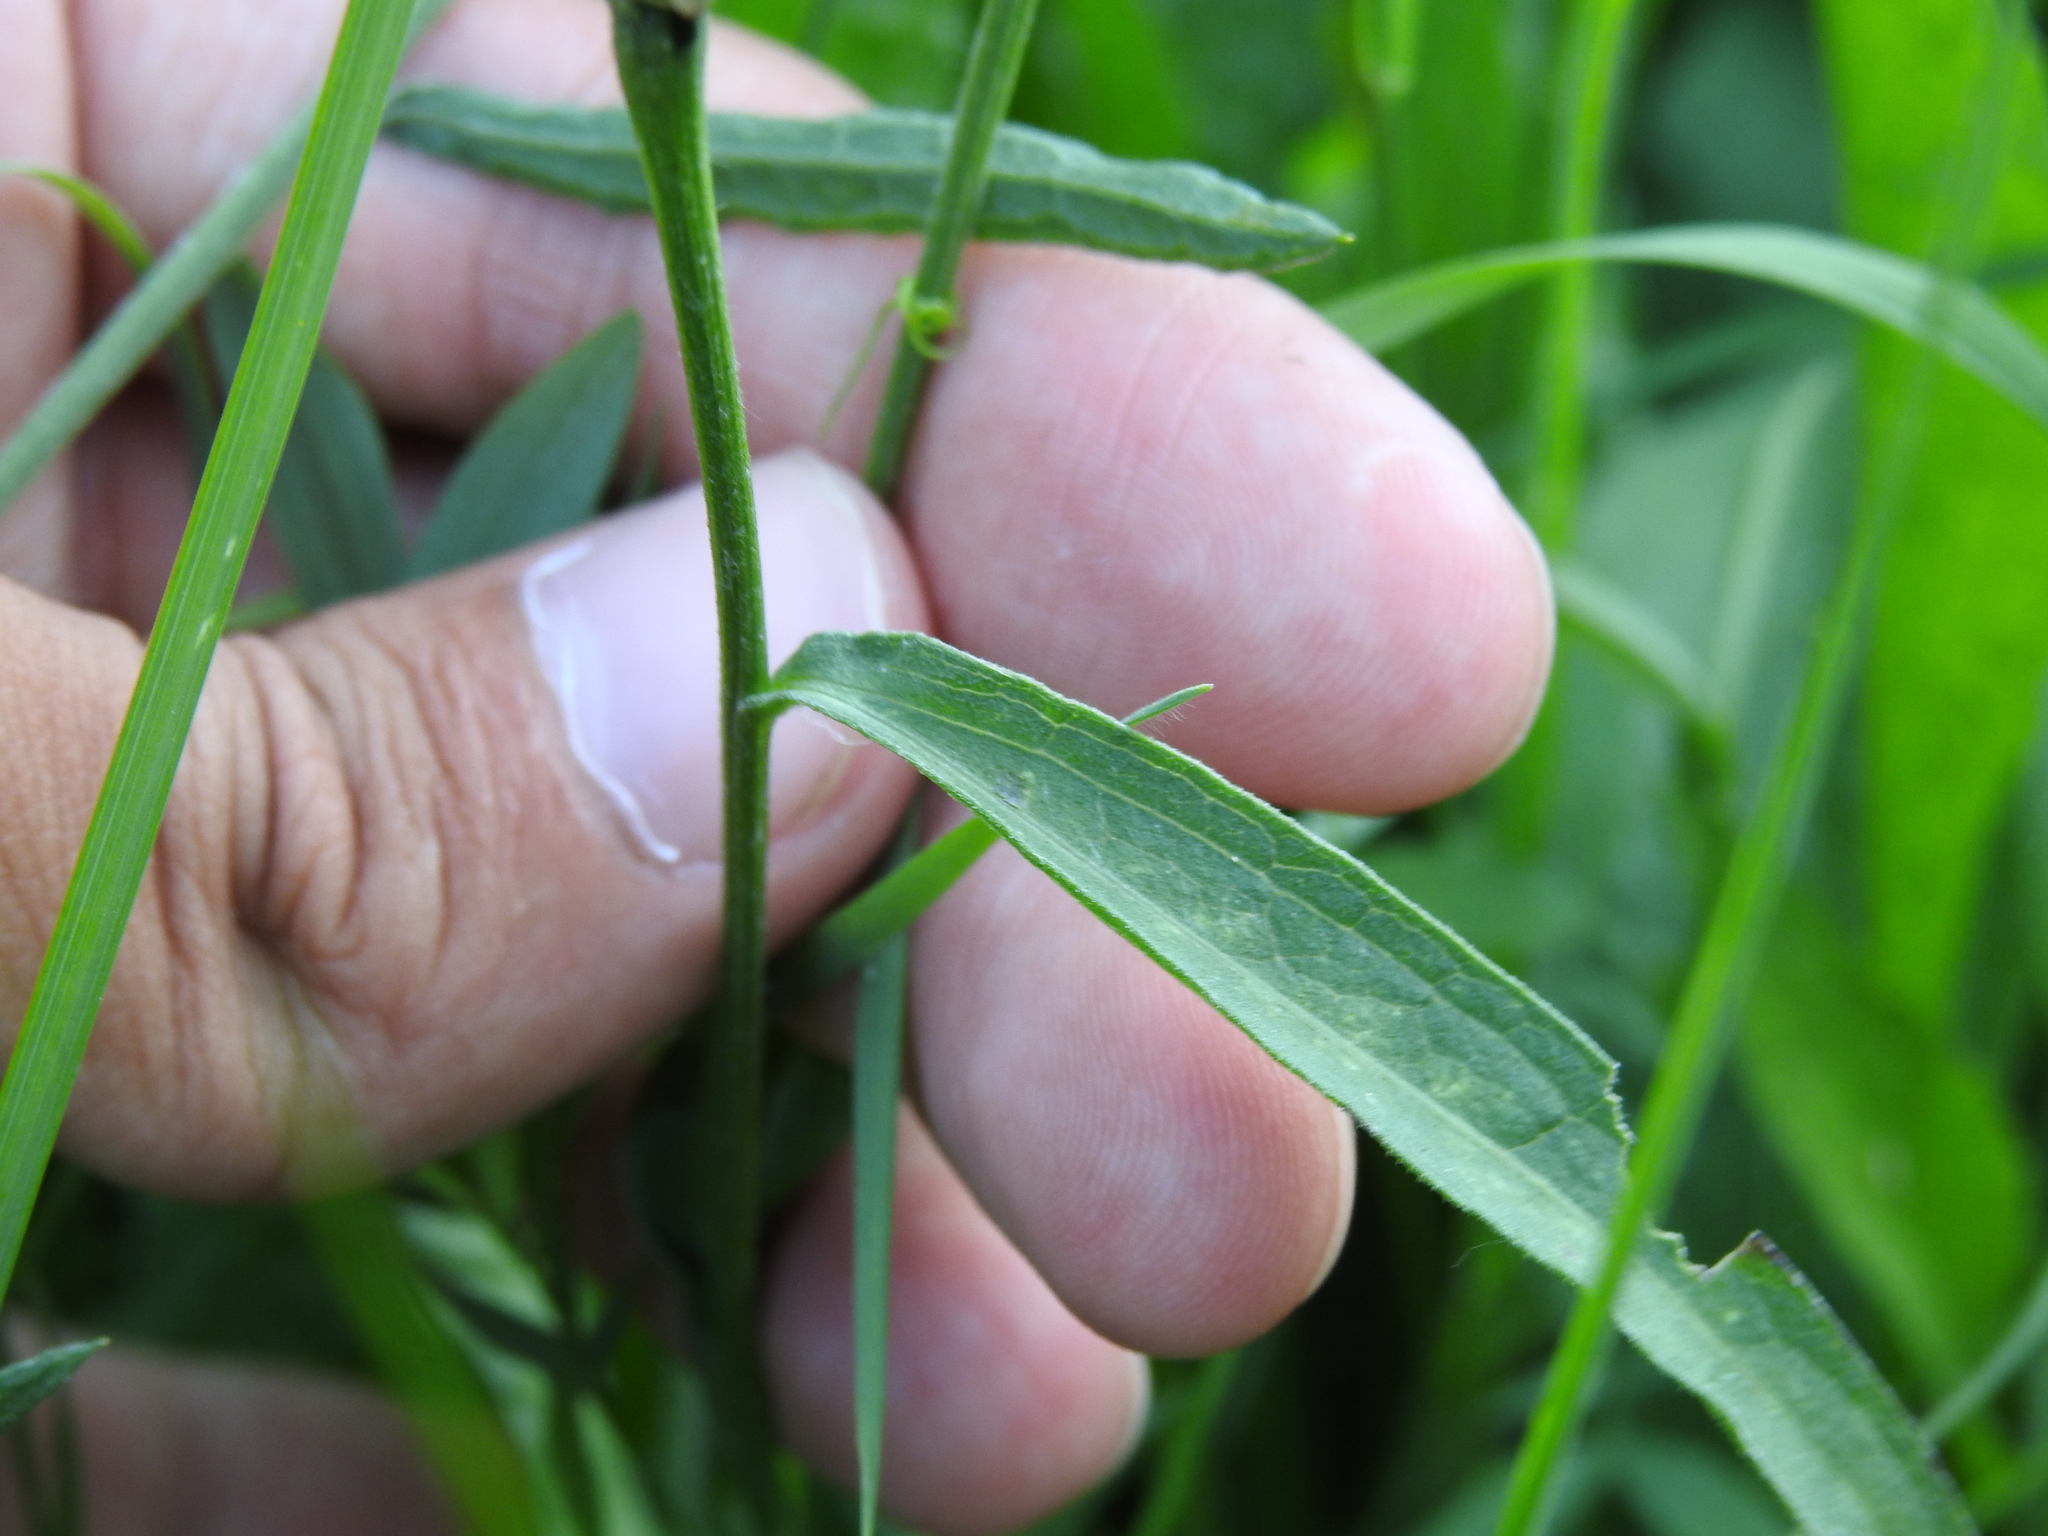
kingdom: Plantae
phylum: Tracheophyta
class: Magnoliopsida
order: Asterales
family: Asteraceae
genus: Centaurea
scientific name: Centaurea jacea
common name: Brown knapweed
